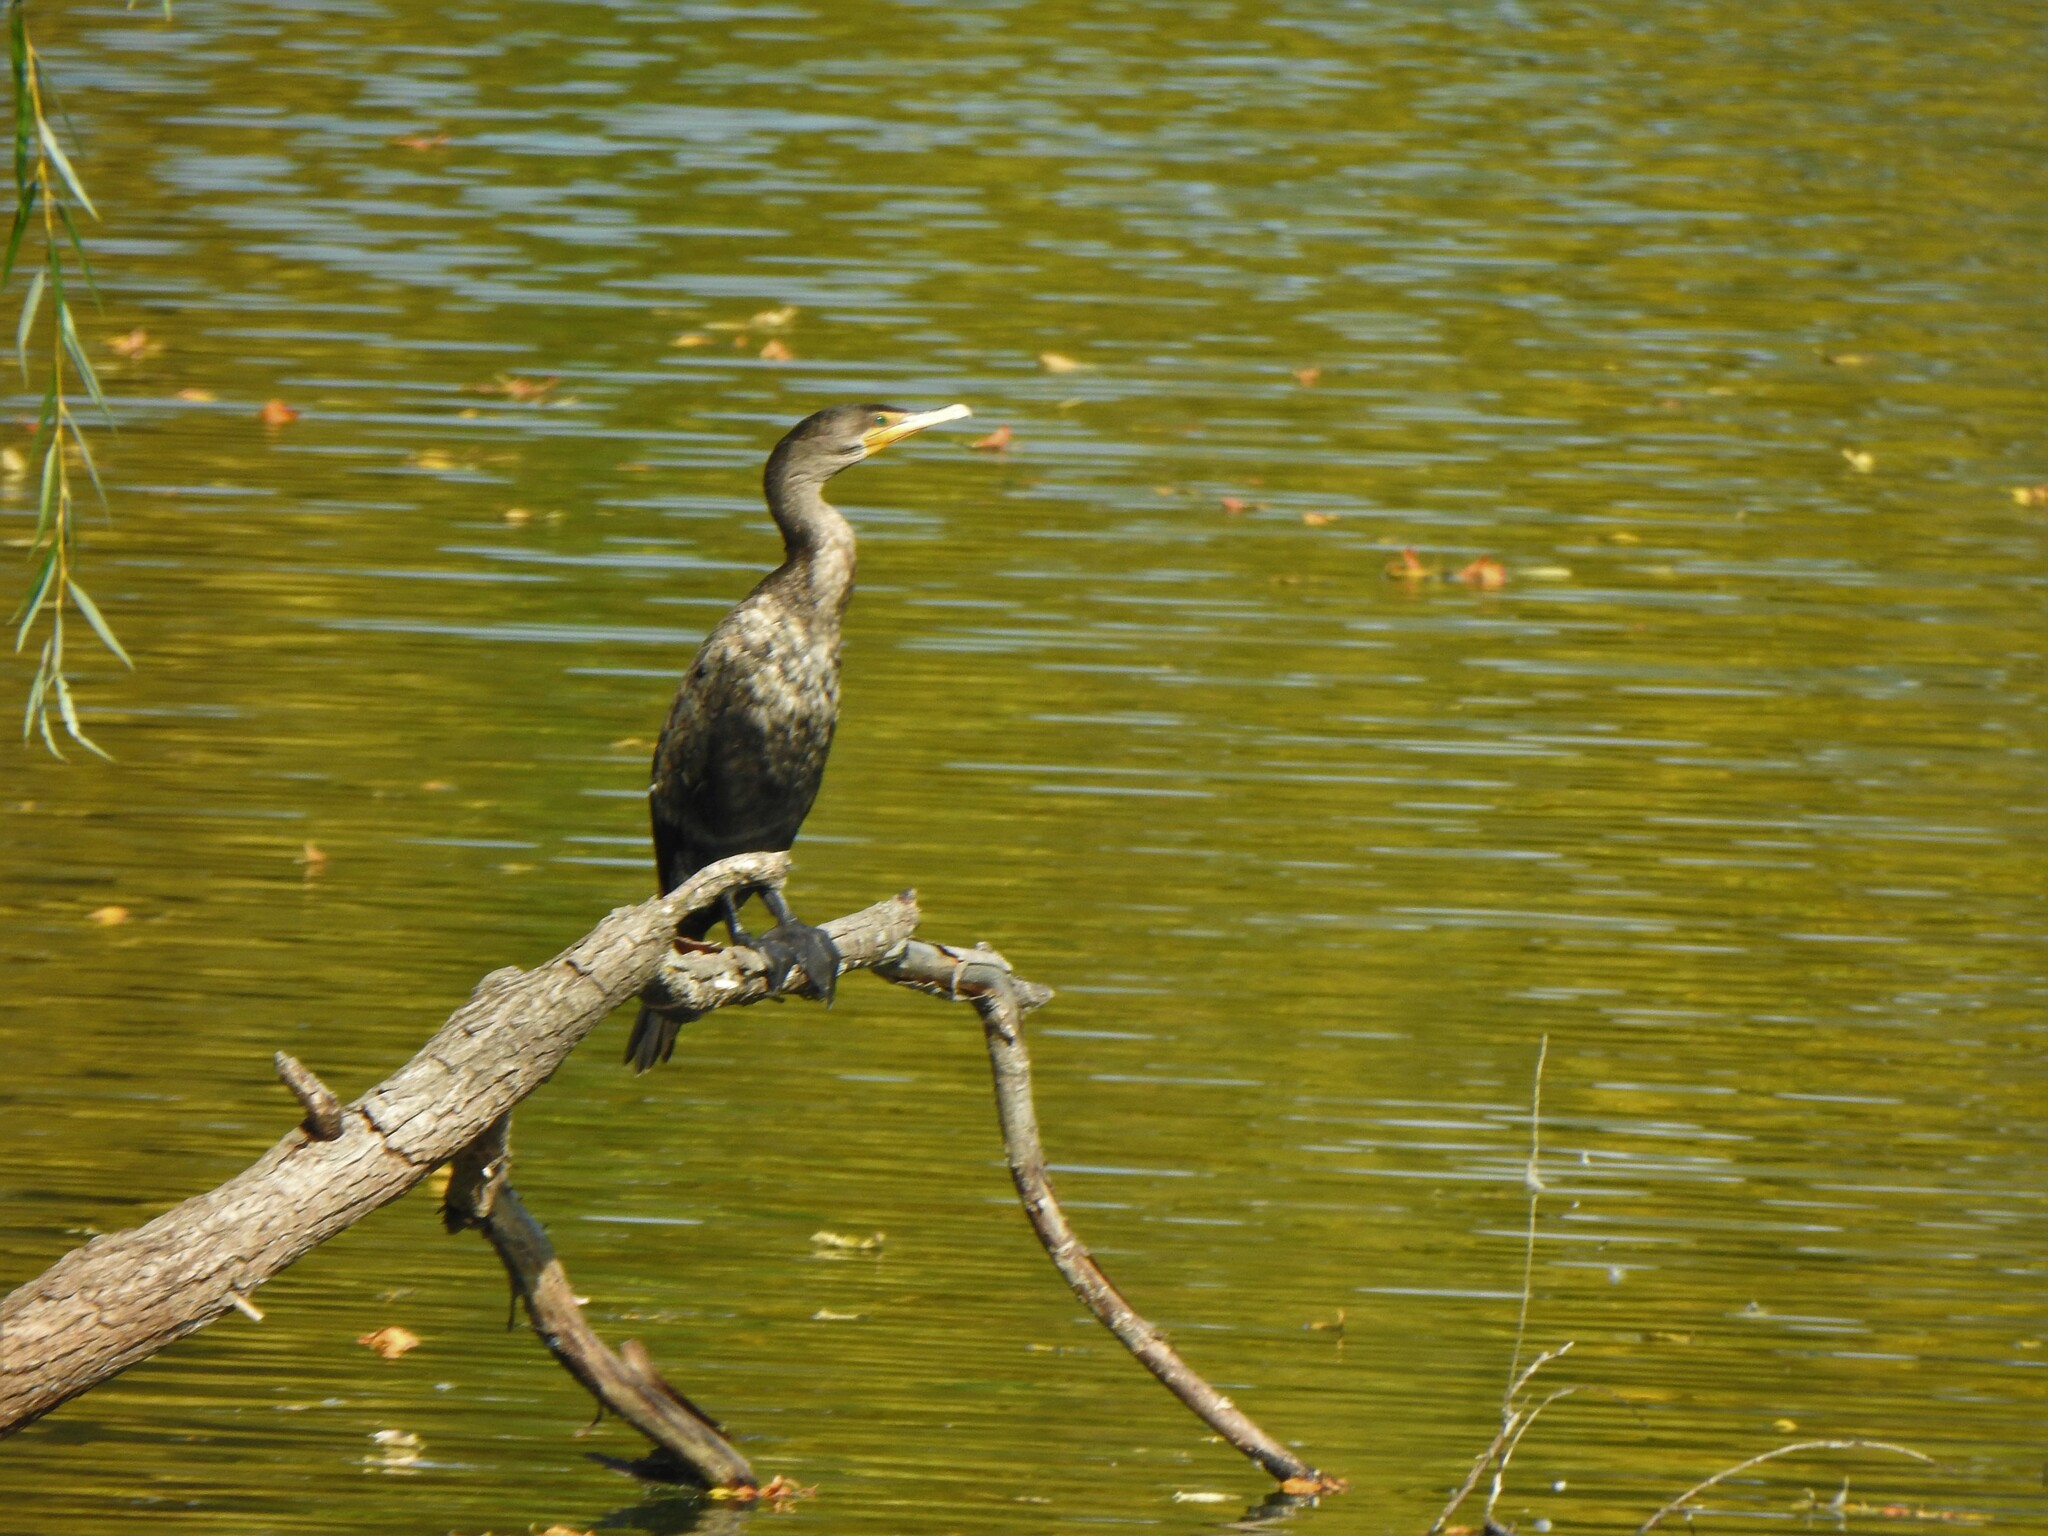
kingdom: Animalia
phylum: Chordata
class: Aves
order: Suliformes
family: Phalacrocoracidae
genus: Phalacrocorax
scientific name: Phalacrocorax auritus
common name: Double-crested cormorant
